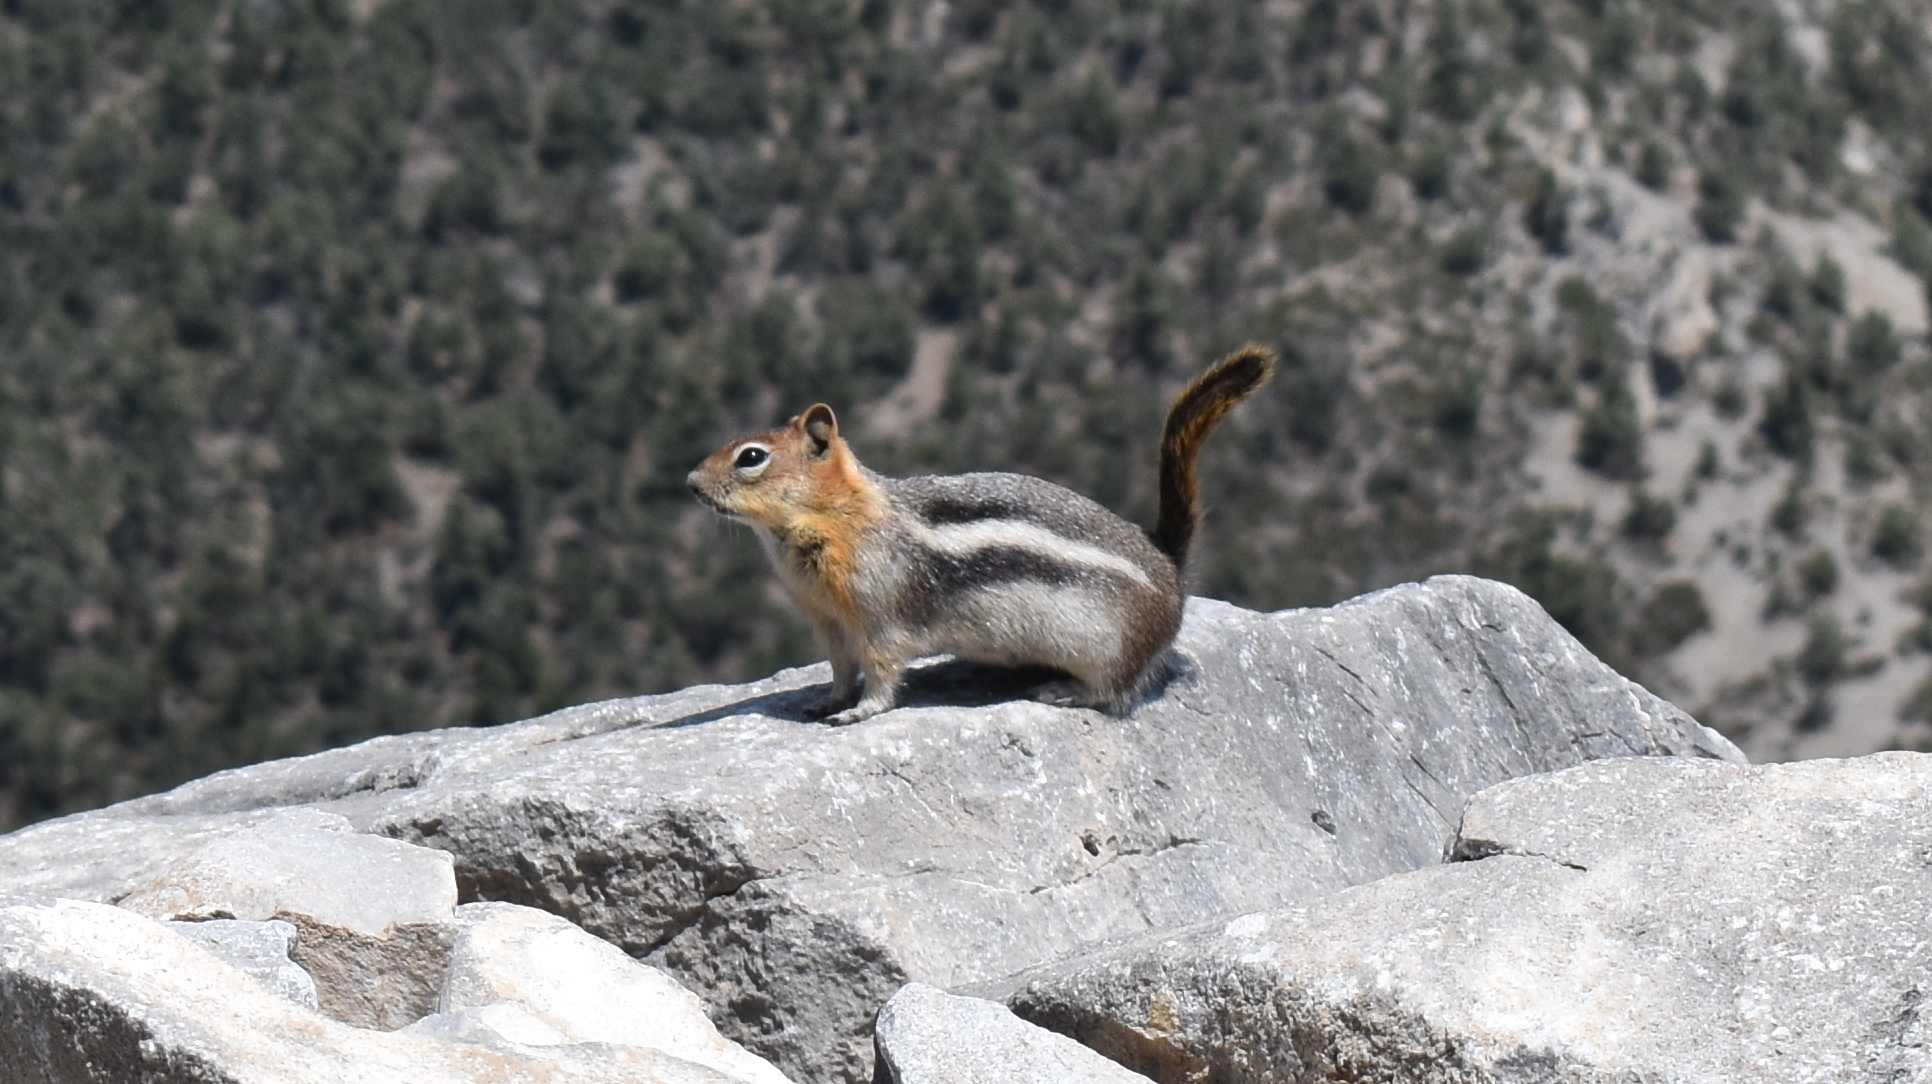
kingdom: Animalia
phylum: Chordata
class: Mammalia
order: Rodentia
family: Sciuridae
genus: Callospermophilus
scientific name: Callospermophilus lateralis
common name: Golden-mantled ground squirrel
